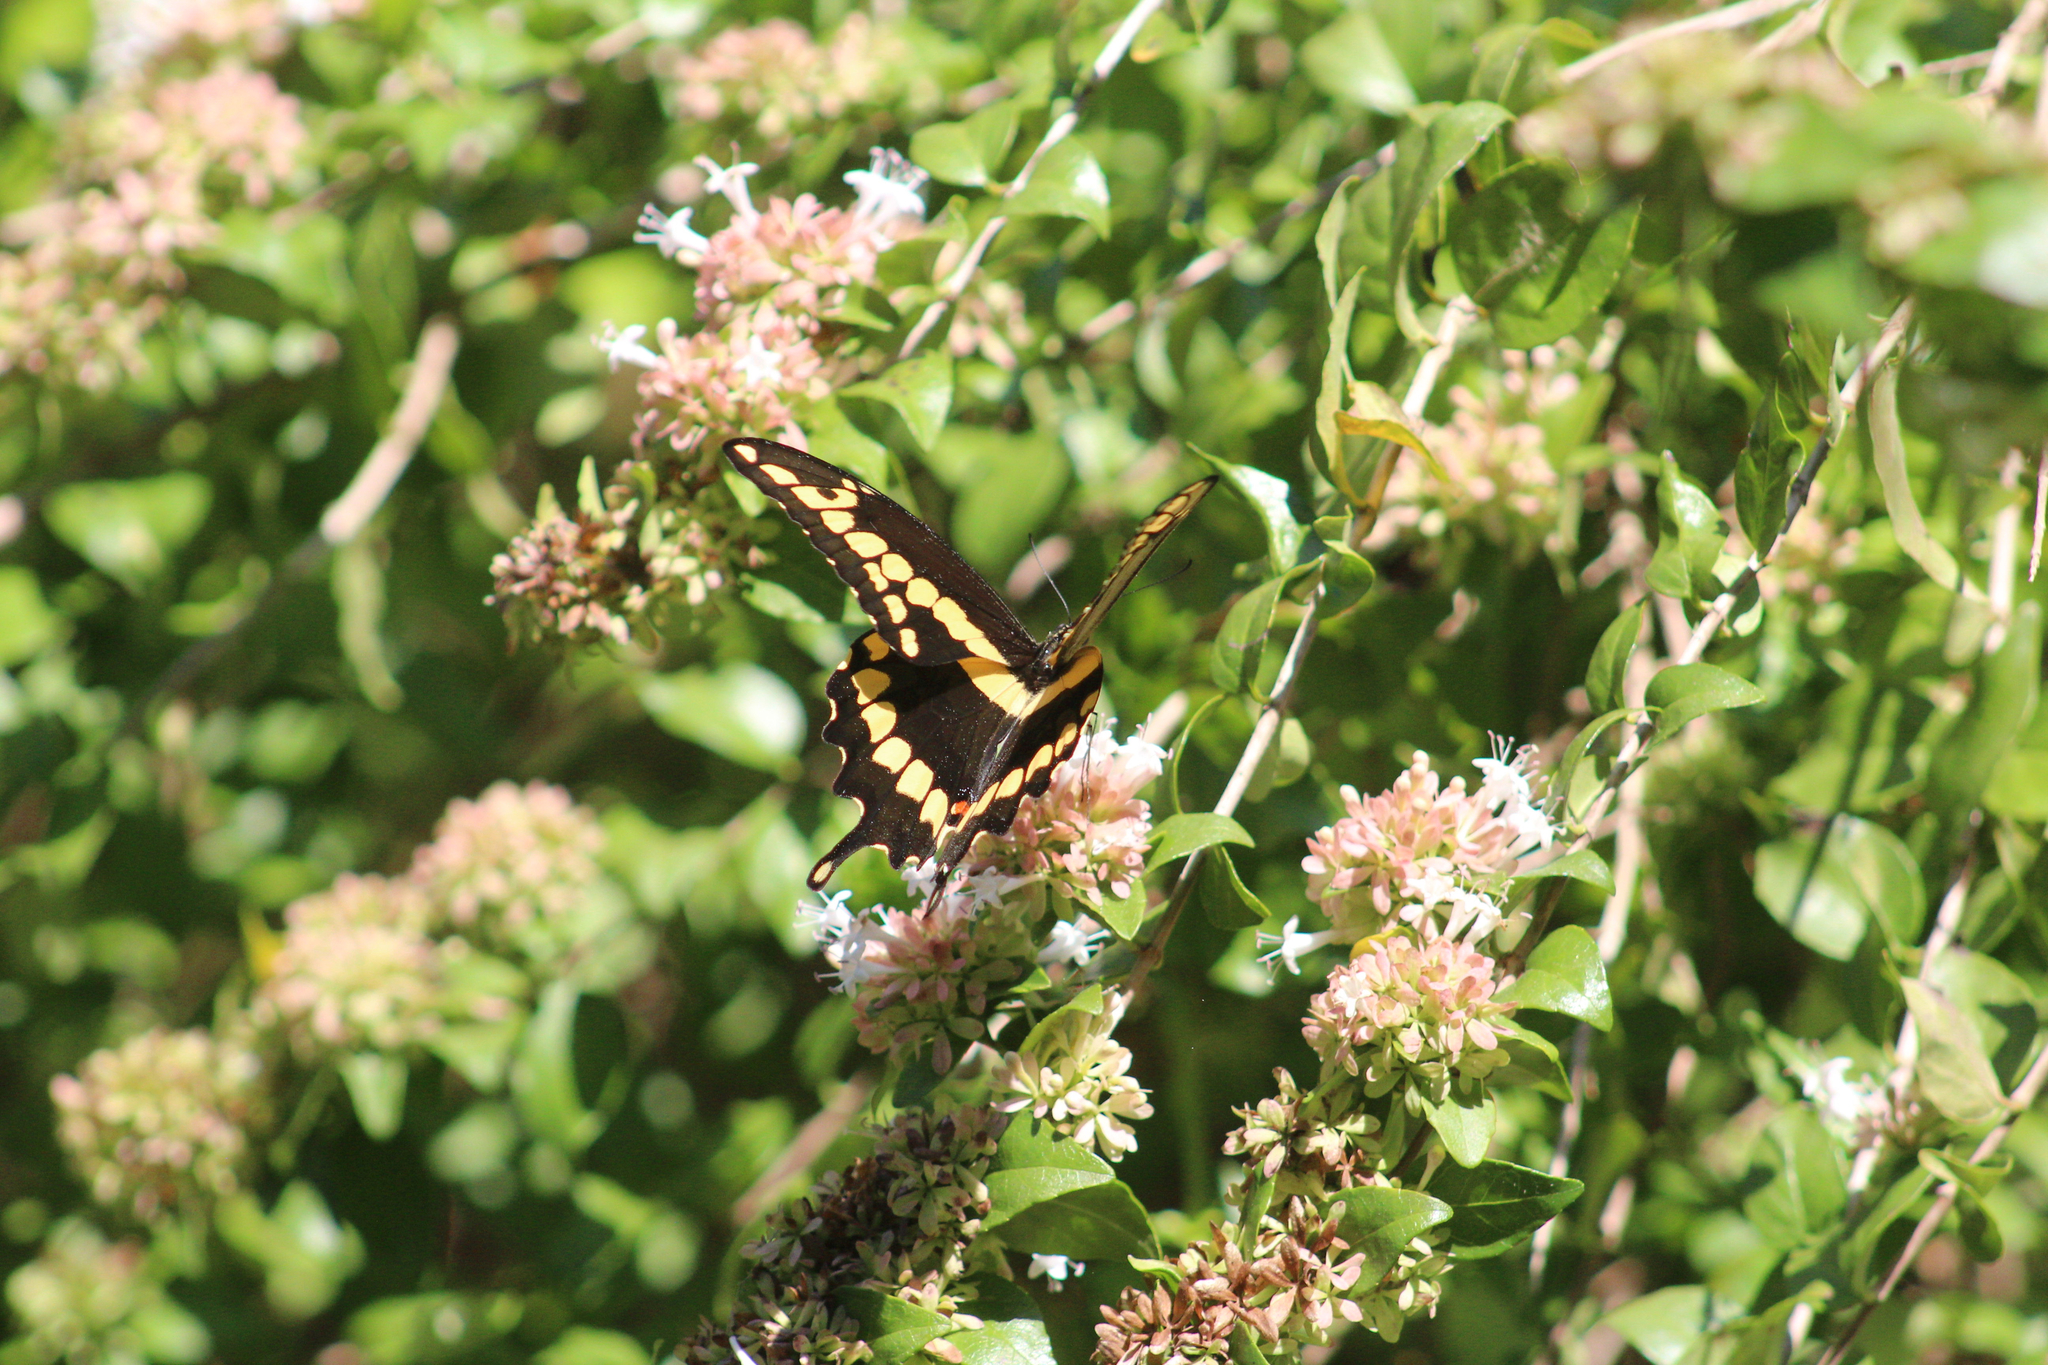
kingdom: Animalia
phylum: Arthropoda
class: Insecta
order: Lepidoptera
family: Papilionidae
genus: Papilio
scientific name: Papilio cresphontes
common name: Giant swallowtail
